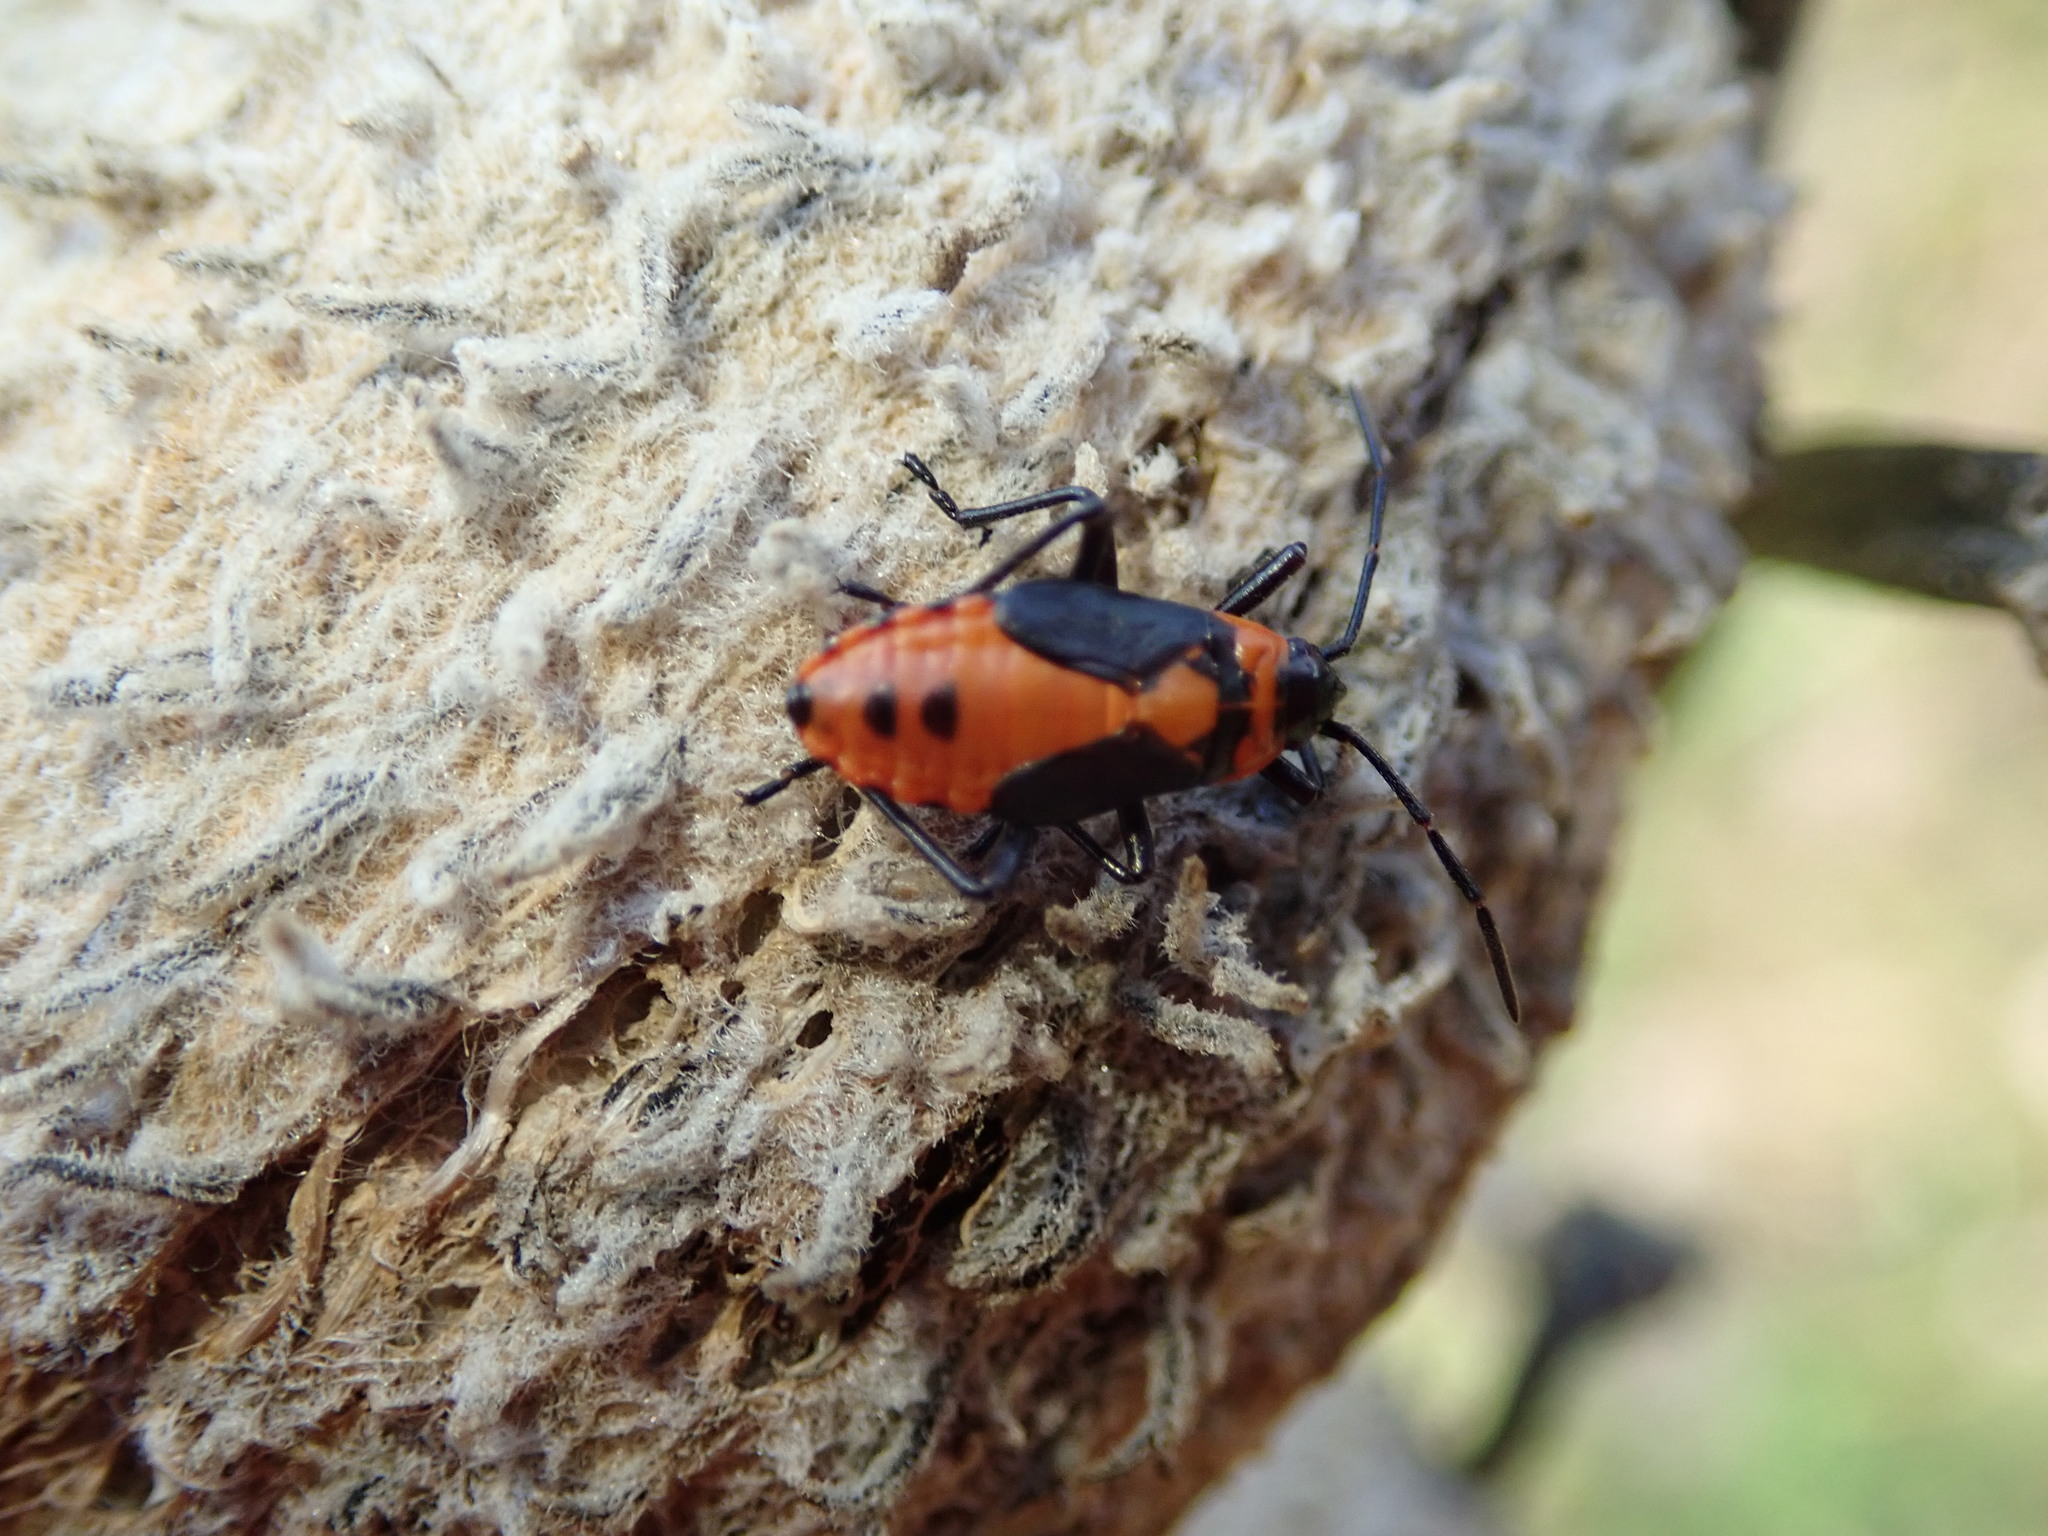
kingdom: Animalia
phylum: Arthropoda
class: Insecta
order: Hemiptera
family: Lygaeidae
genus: Oncopeltus
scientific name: Oncopeltus fasciatus
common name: Large milkweed bug
